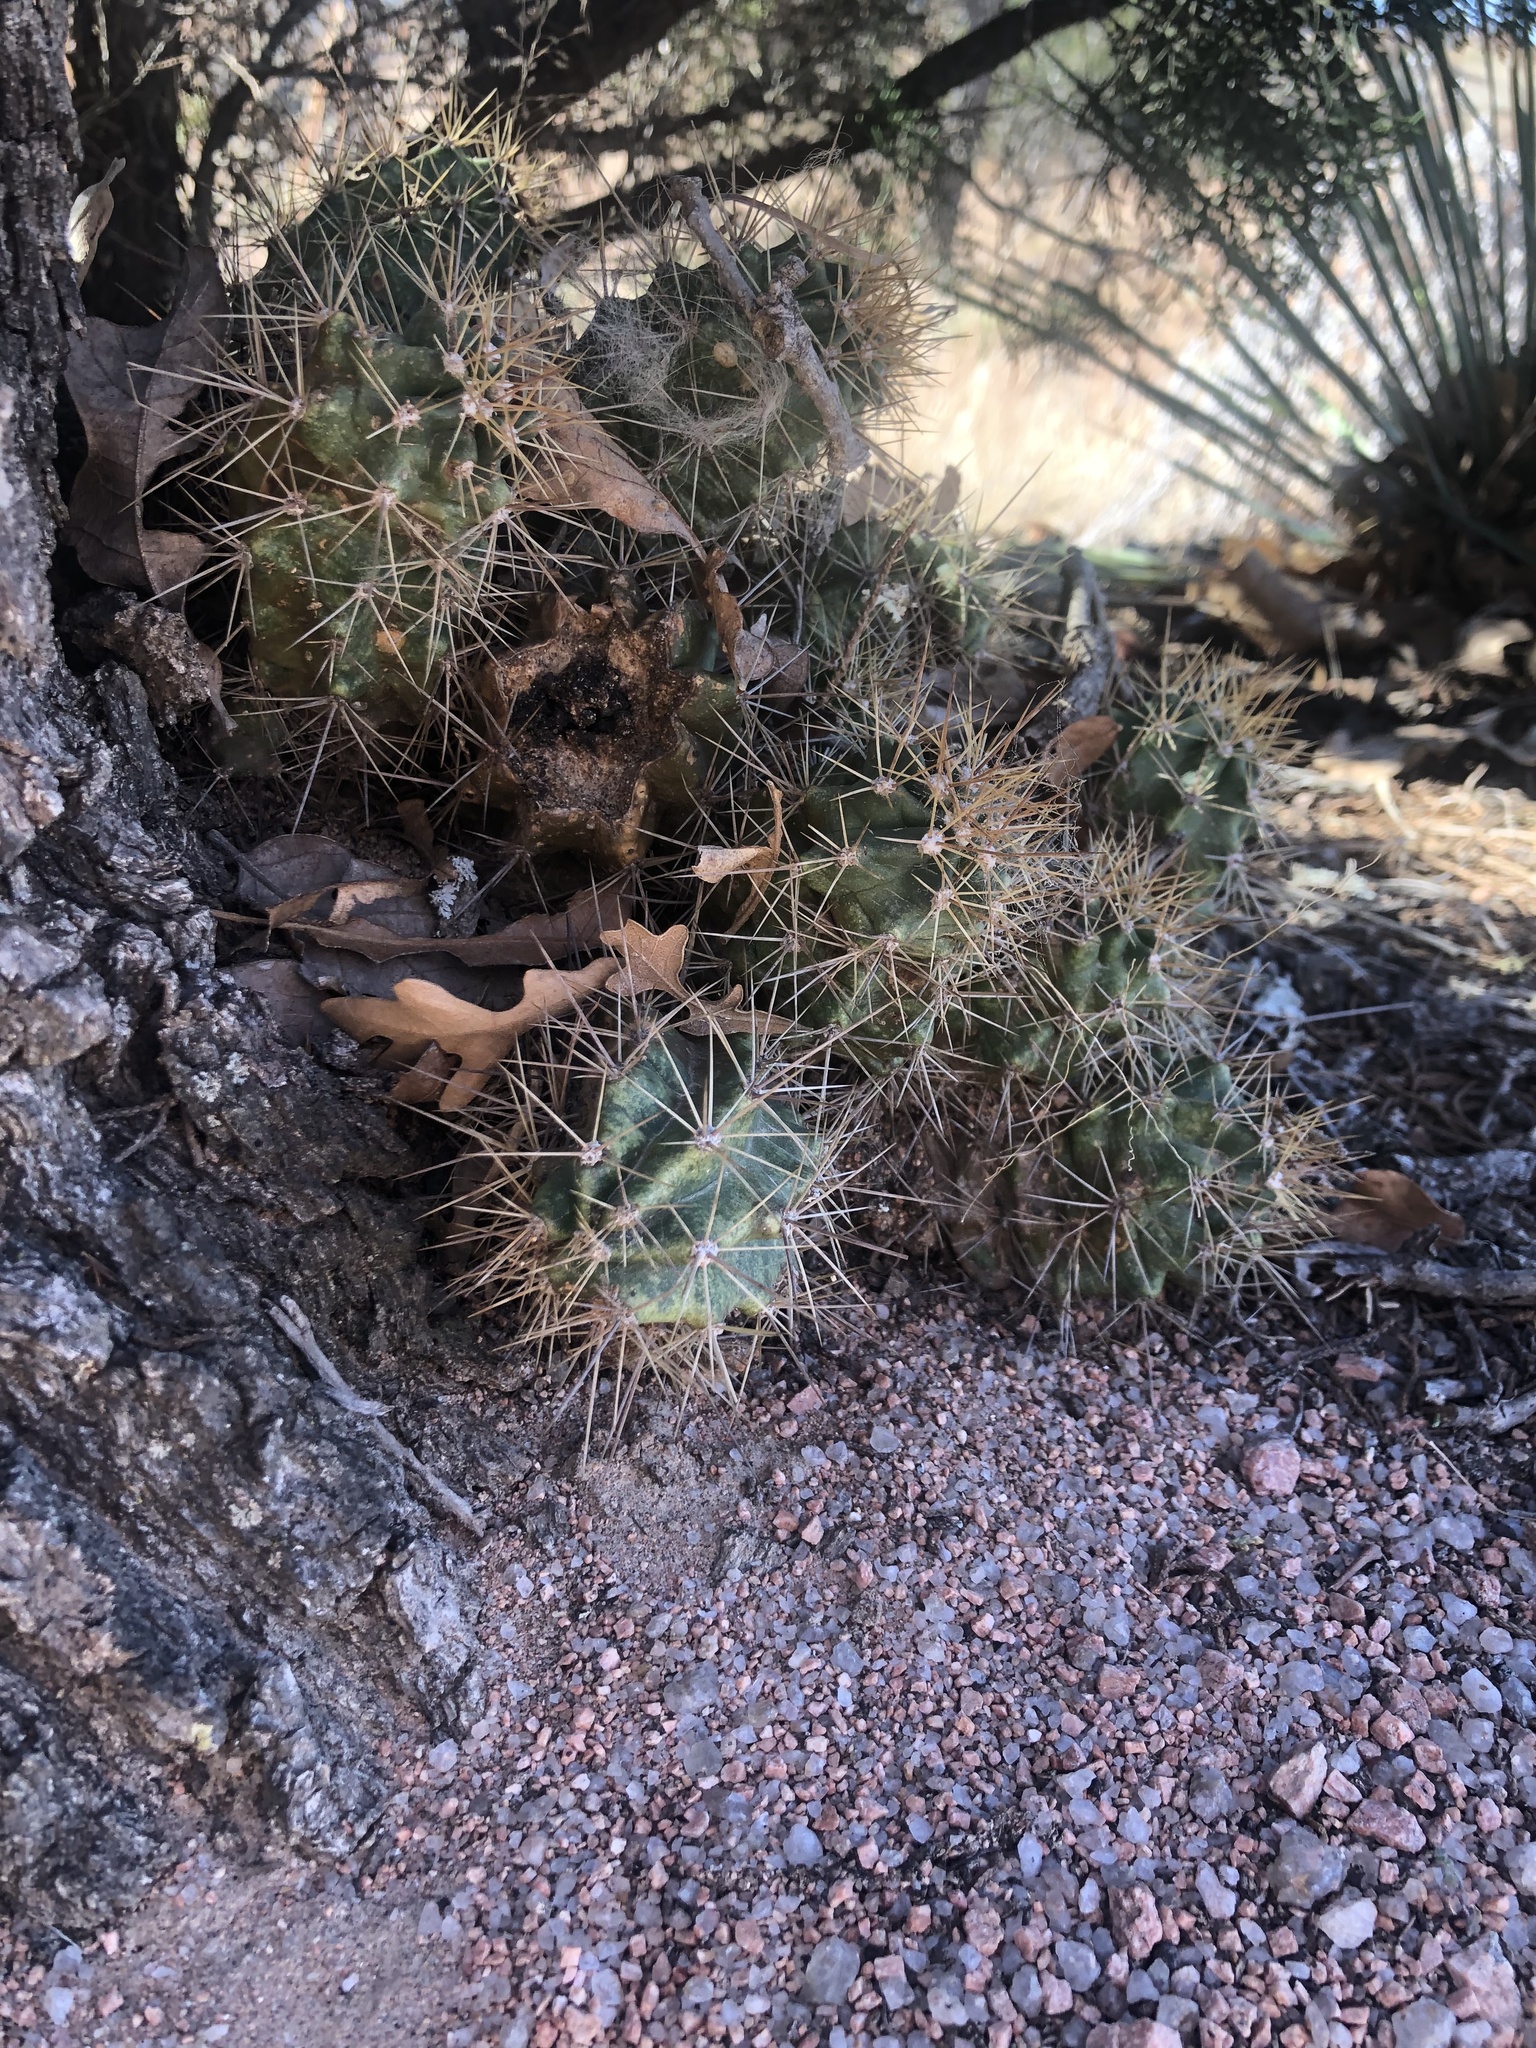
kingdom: Plantae
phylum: Tracheophyta
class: Magnoliopsida
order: Caryophyllales
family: Cactaceae
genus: Echinocereus
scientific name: Echinocereus coccineus
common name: Scarlet hedgehog cactus
